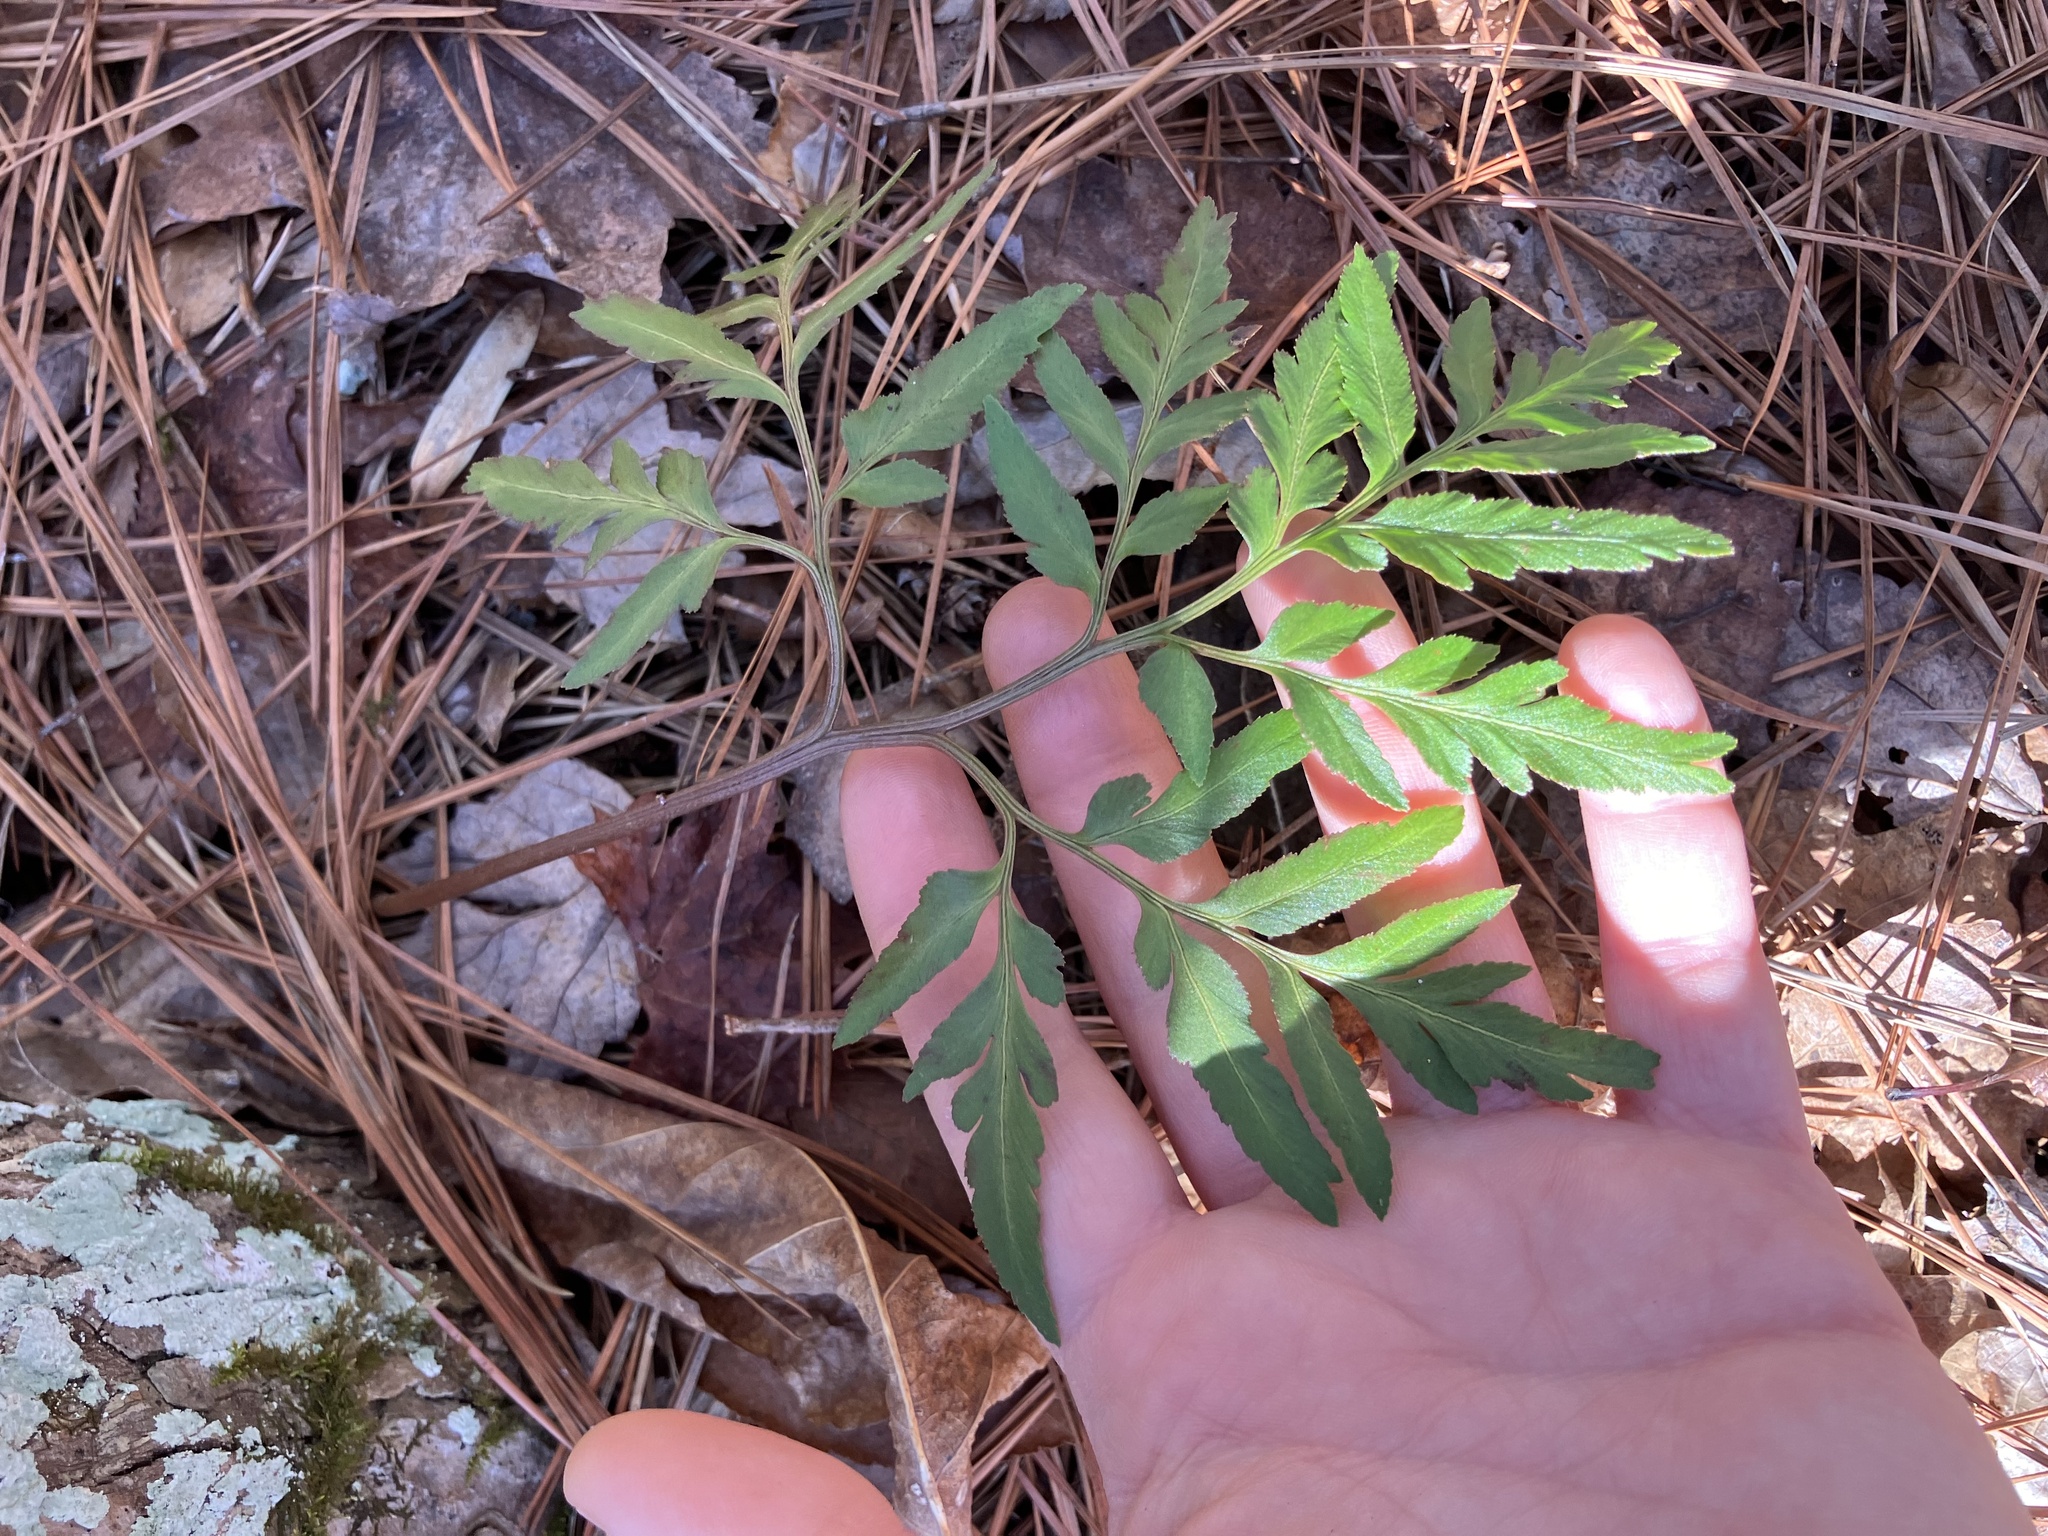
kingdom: Plantae
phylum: Tracheophyta
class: Polypodiopsida
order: Ophioglossales
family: Ophioglossaceae
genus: Sceptridium
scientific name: Sceptridium biternatum
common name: Sparse-lobed grapefern
